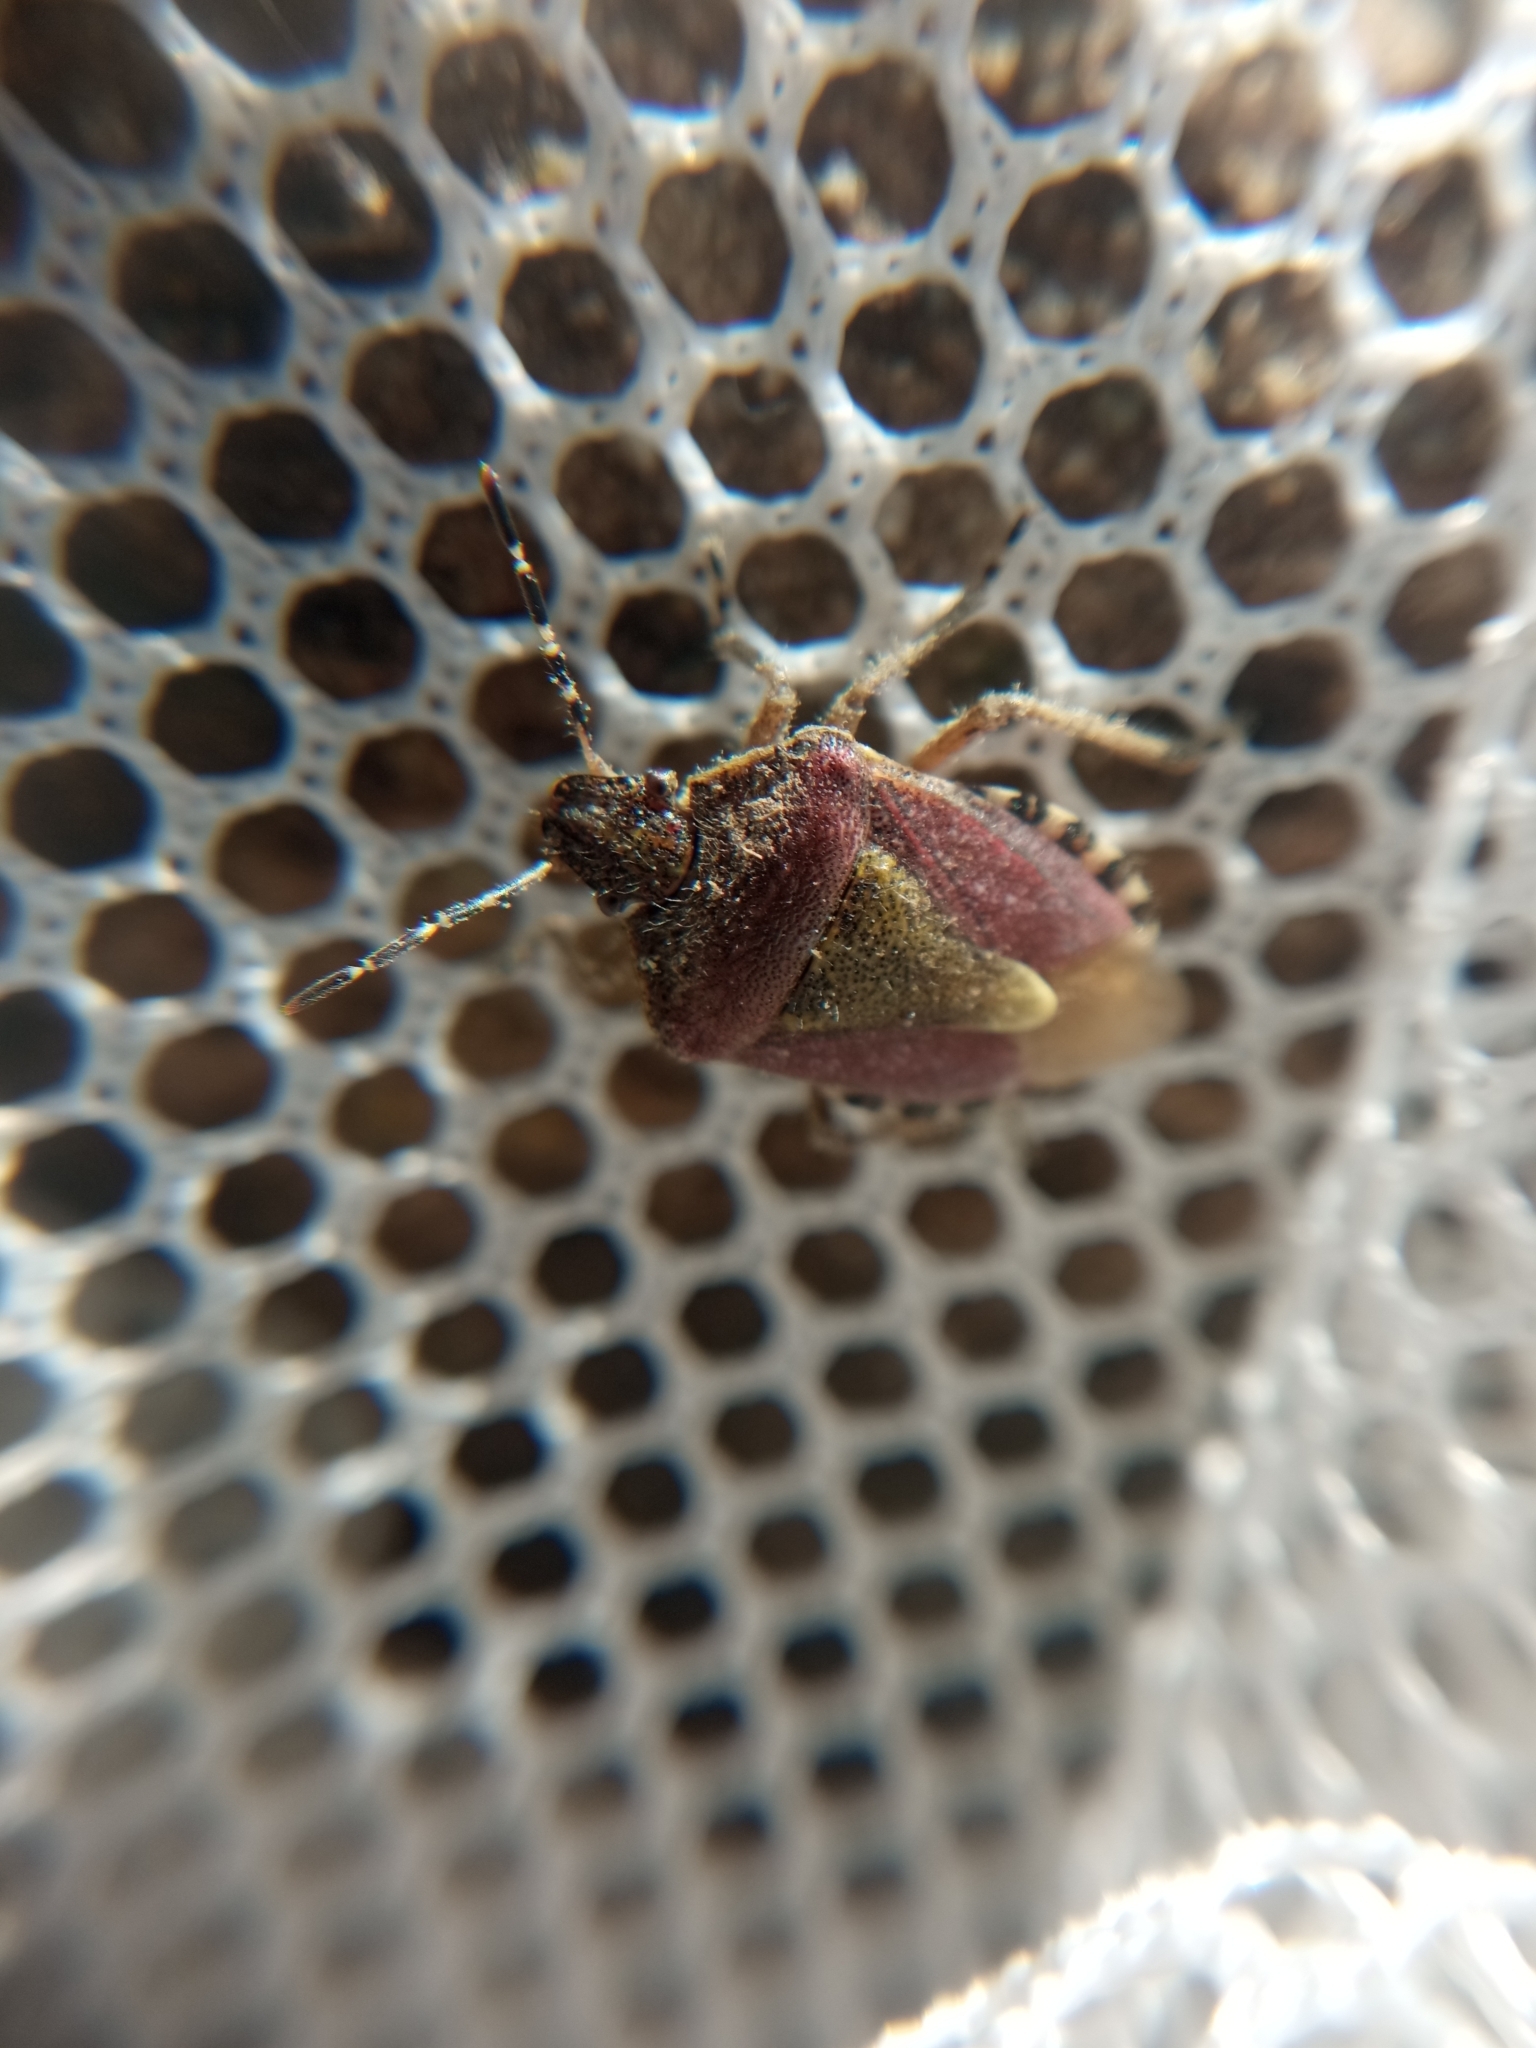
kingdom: Animalia
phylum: Arthropoda
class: Insecta
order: Hemiptera
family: Pentatomidae
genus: Dolycoris
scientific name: Dolycoris baccarum
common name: Sloe bug
